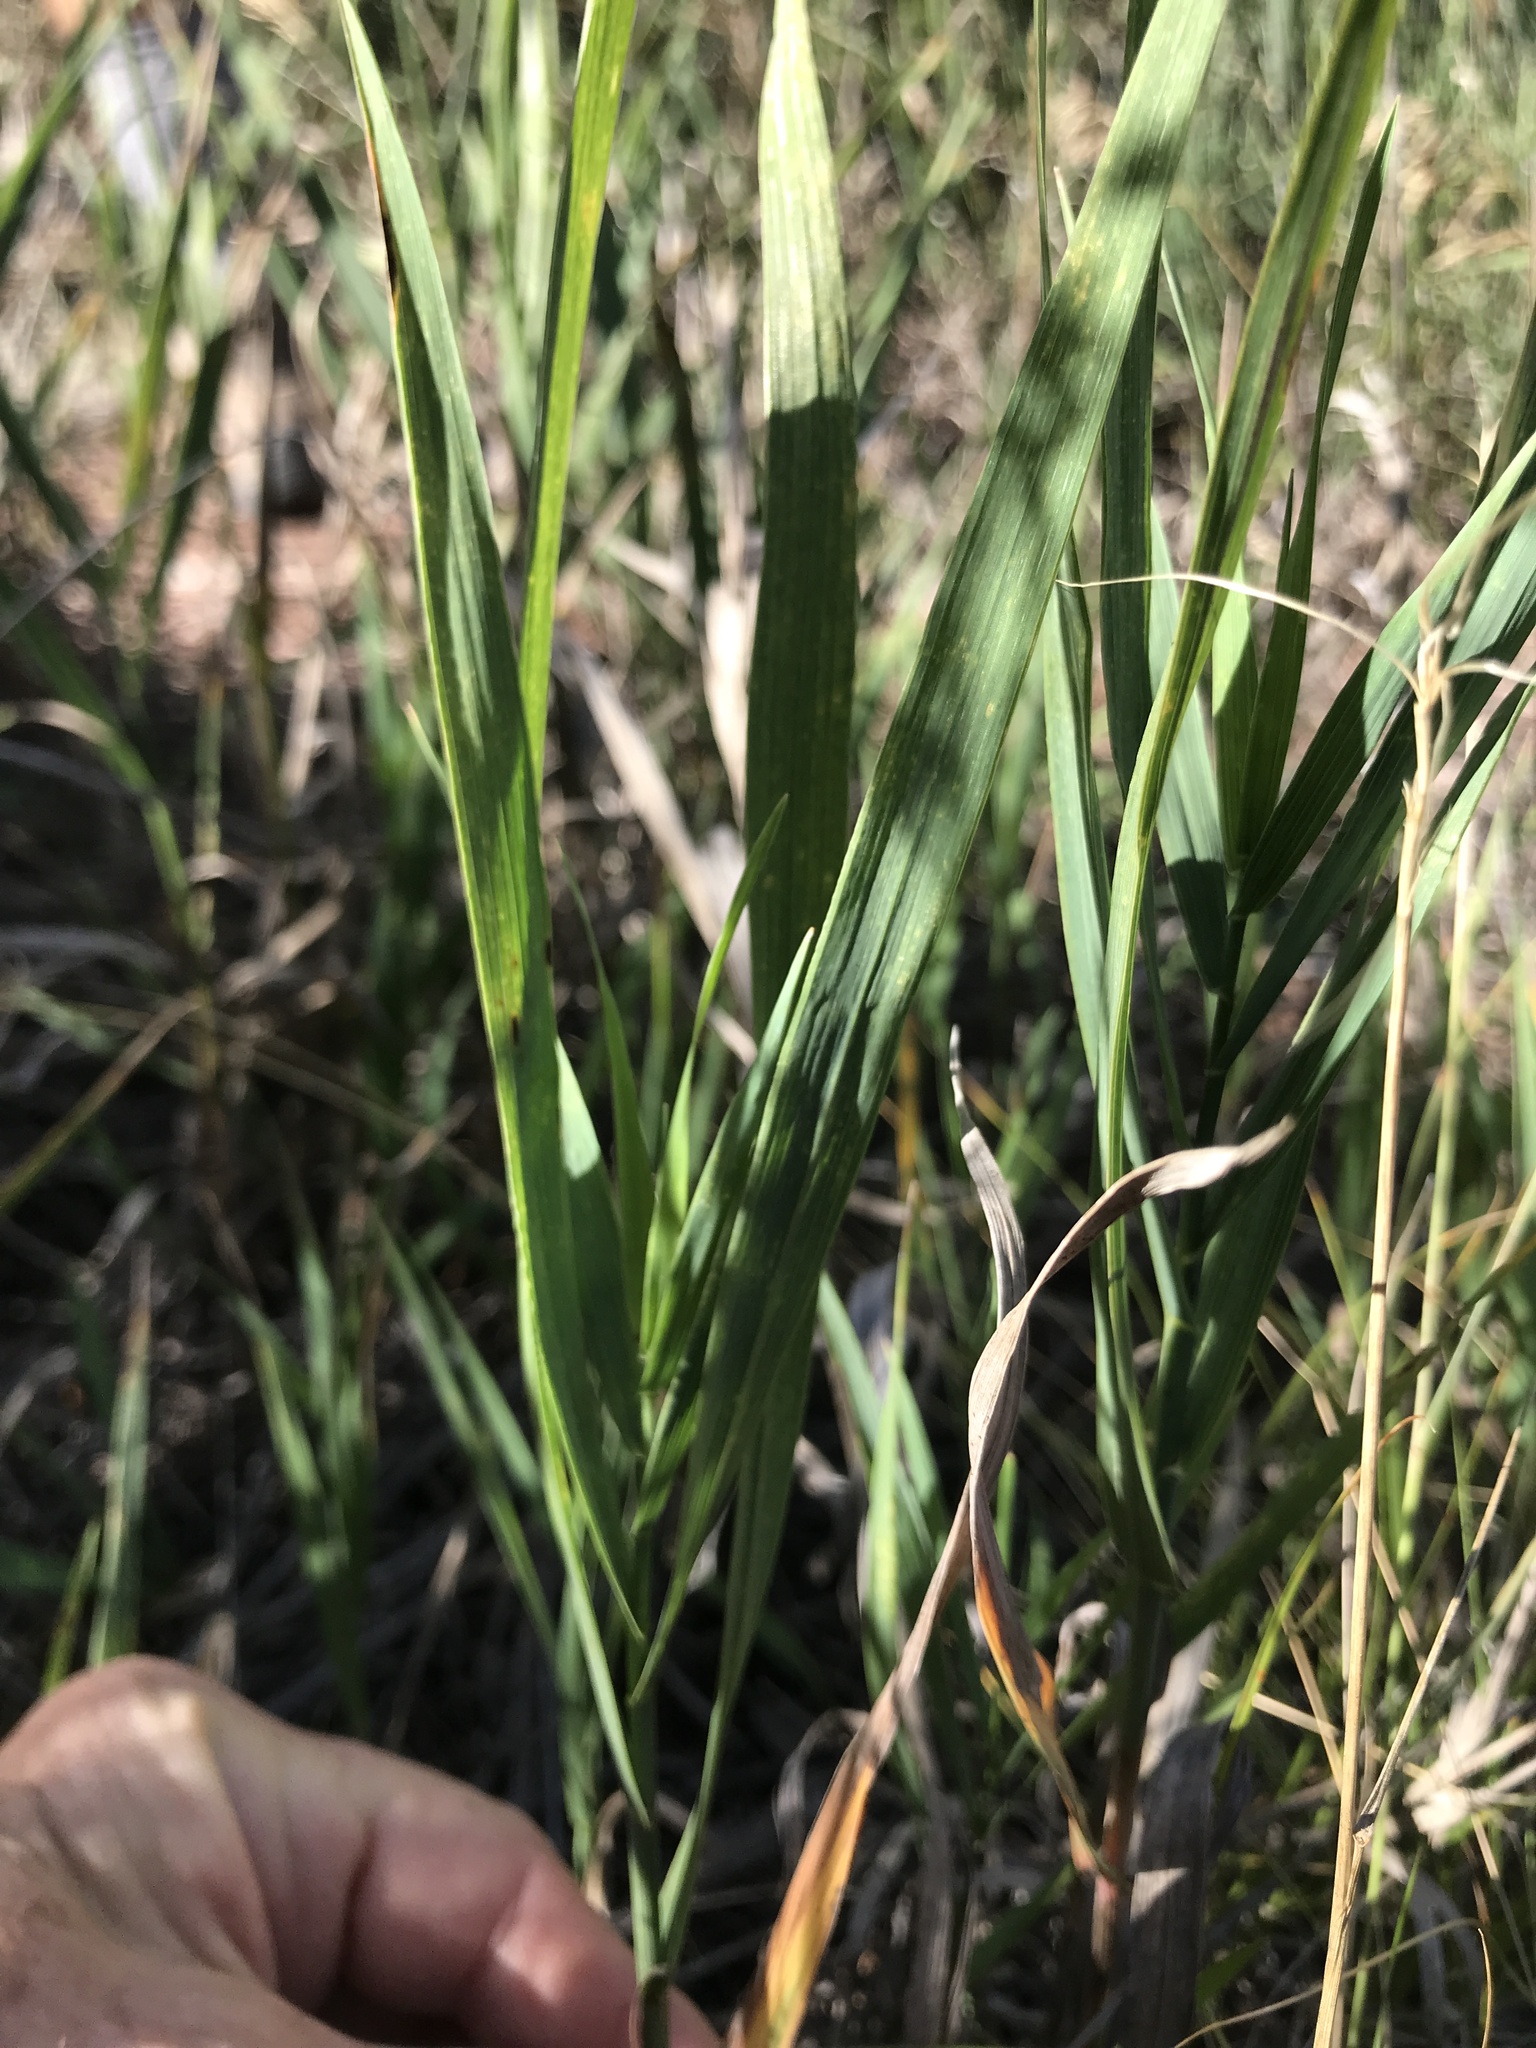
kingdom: Plantae
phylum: Tracheophyta
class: Liliopsida
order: Poales
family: Poaceae
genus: Bromus
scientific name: Bromus inermis
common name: Smooth brome
